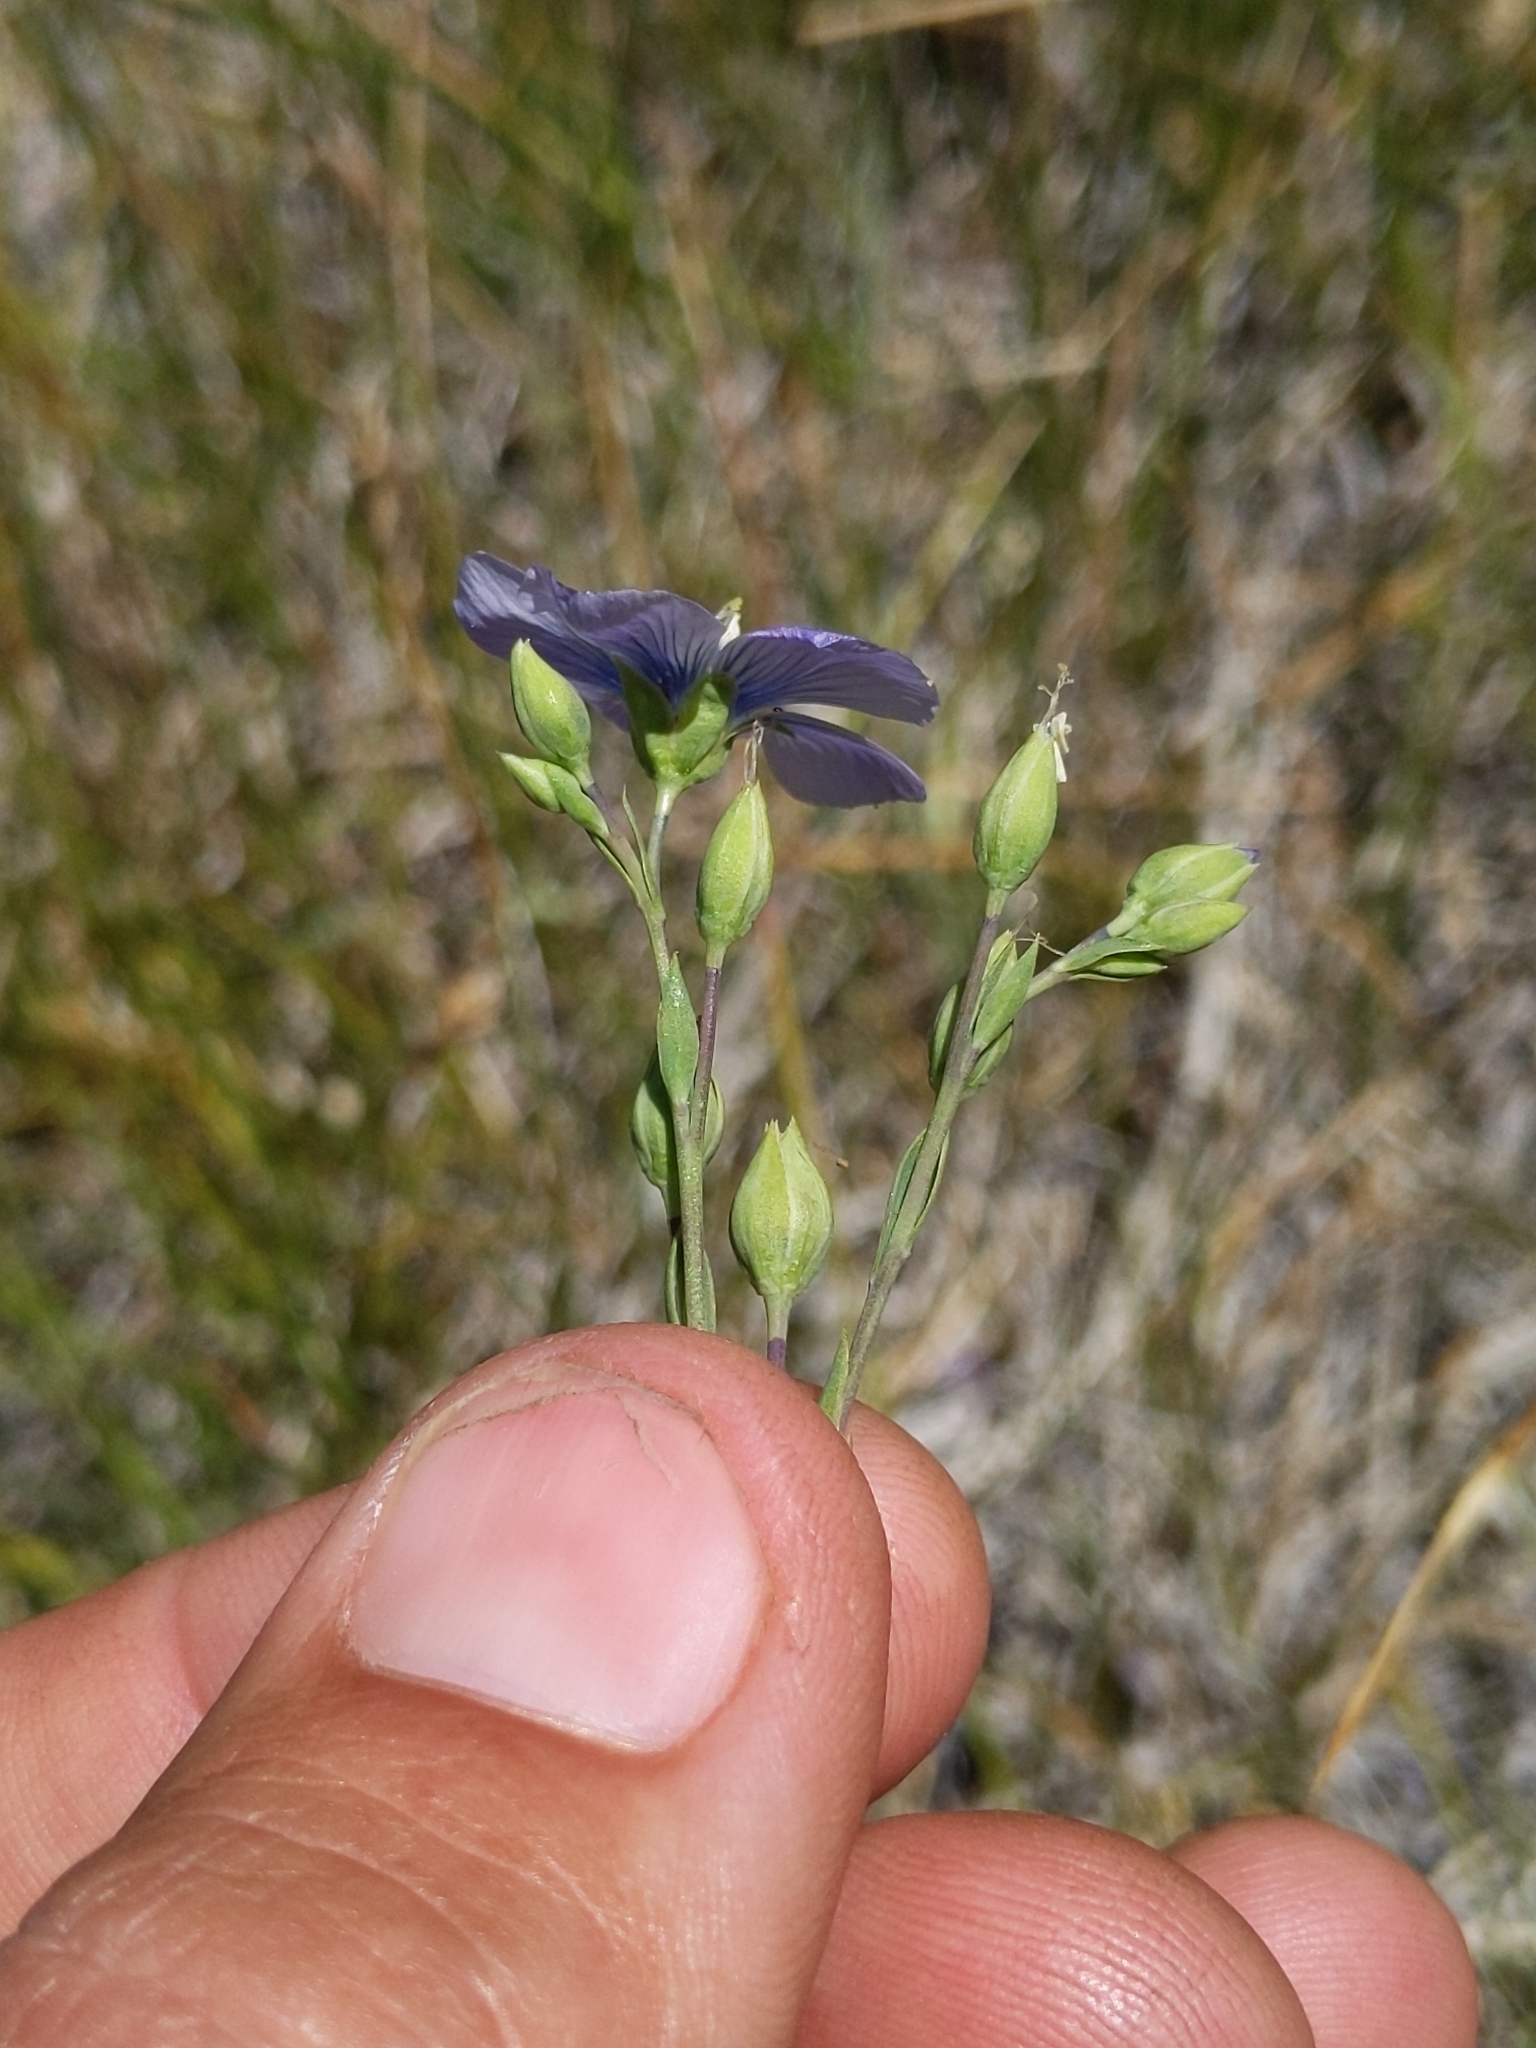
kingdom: Plantae
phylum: Tracheophyta
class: Magnoliopsida
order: Malpighiales
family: Linaceae
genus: Linum
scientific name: Linum lewisii
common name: Prairie flax
